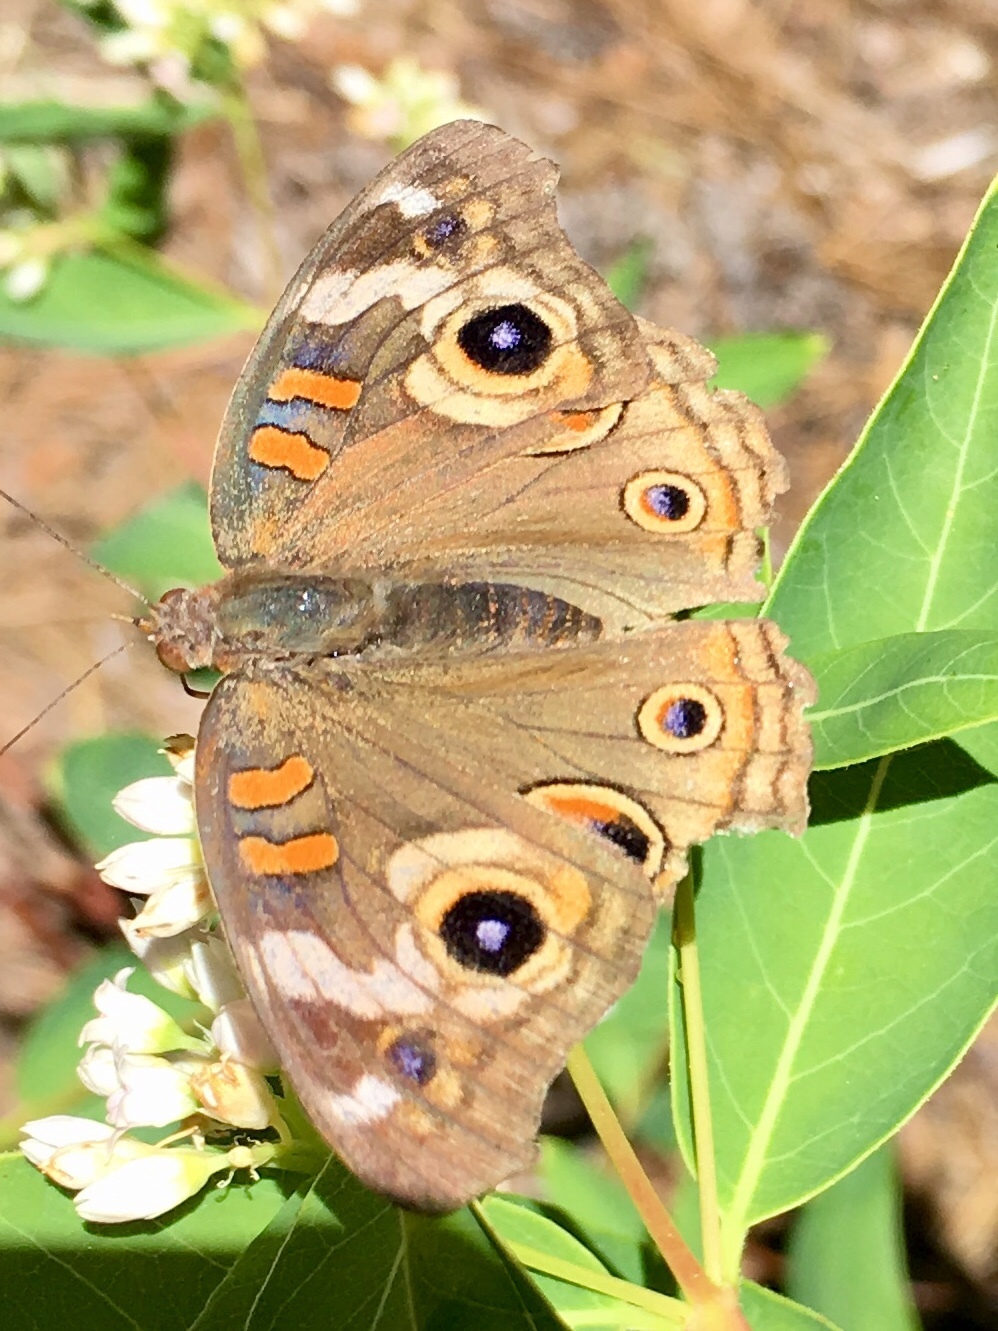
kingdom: Animalia
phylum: Arthropoda
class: Insecta
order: Lepidoptera
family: Nymphalidae
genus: Junonia
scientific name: Junonia grisea
